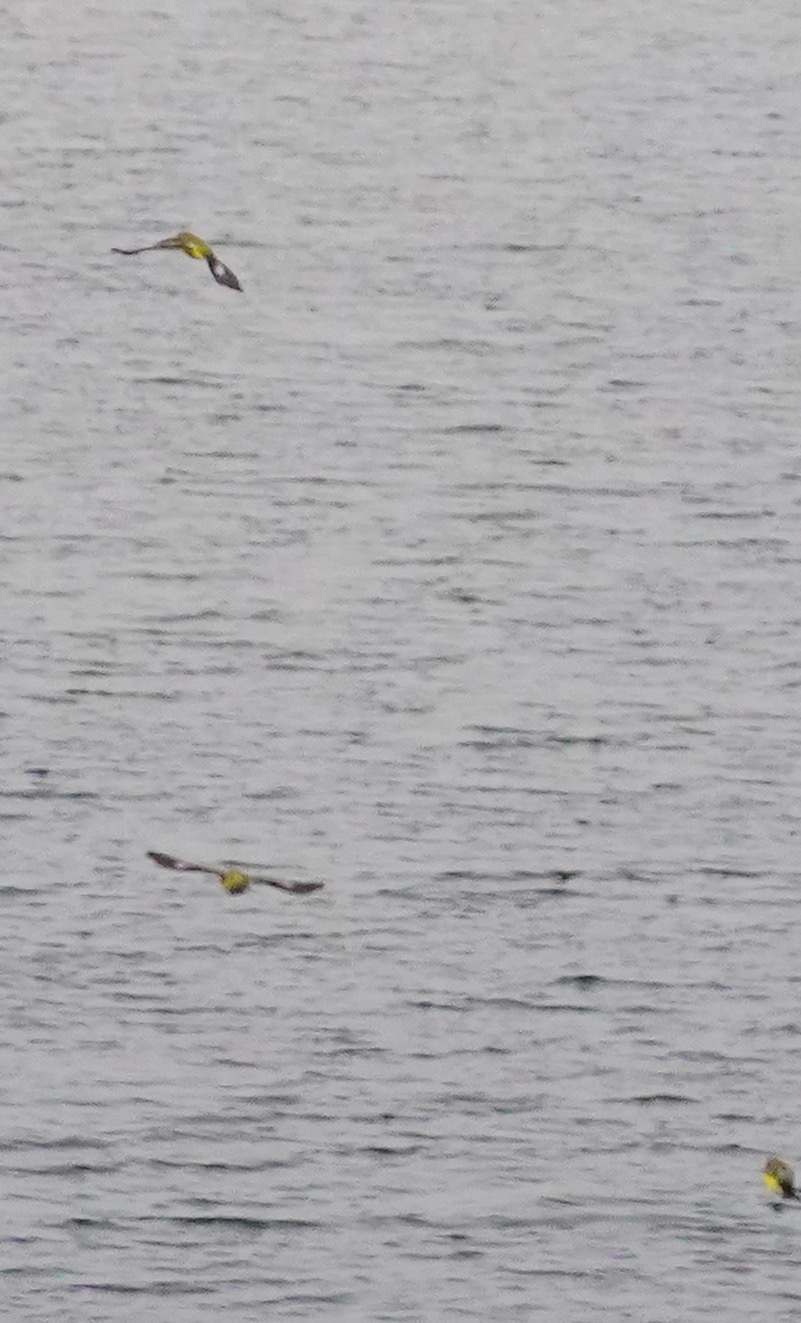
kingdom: Animalia
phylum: Chordata
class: Aves
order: Passeriformes
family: Fringillidae
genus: Spinus
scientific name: Spinus psaltria
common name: Lesser goldfinch
